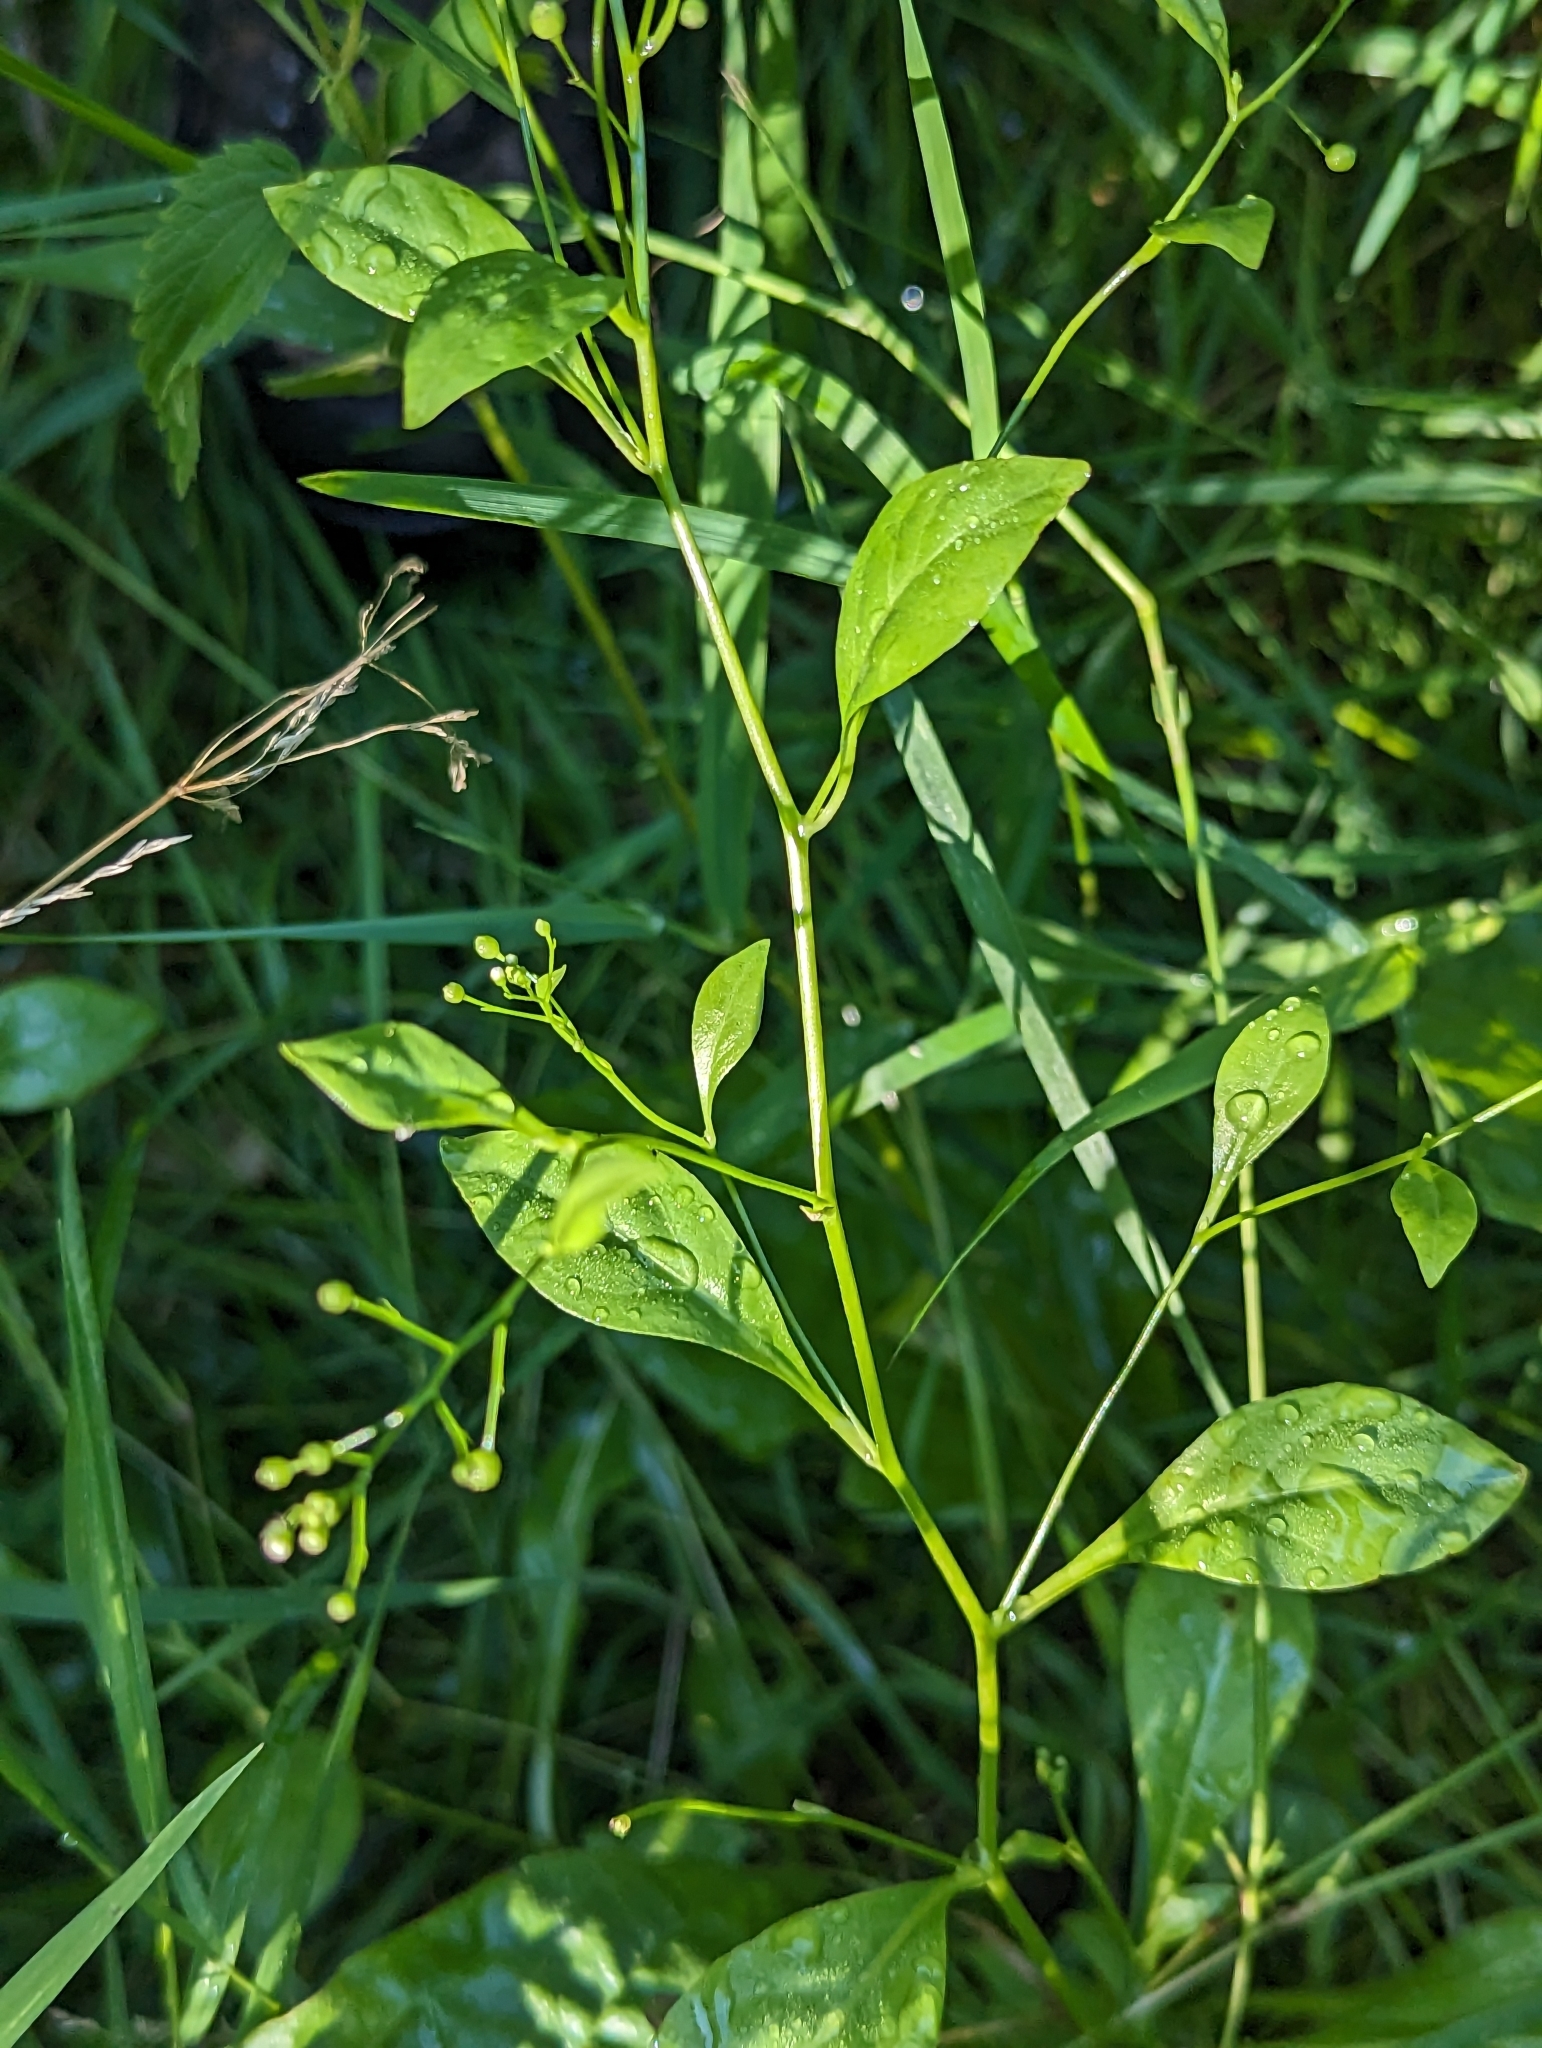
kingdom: Plantae
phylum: Tracheophyta
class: Magnoliopsida
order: Ericales
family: Primulaceae
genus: Samolus
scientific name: Samolus parviflorus
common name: False water pimpernel
